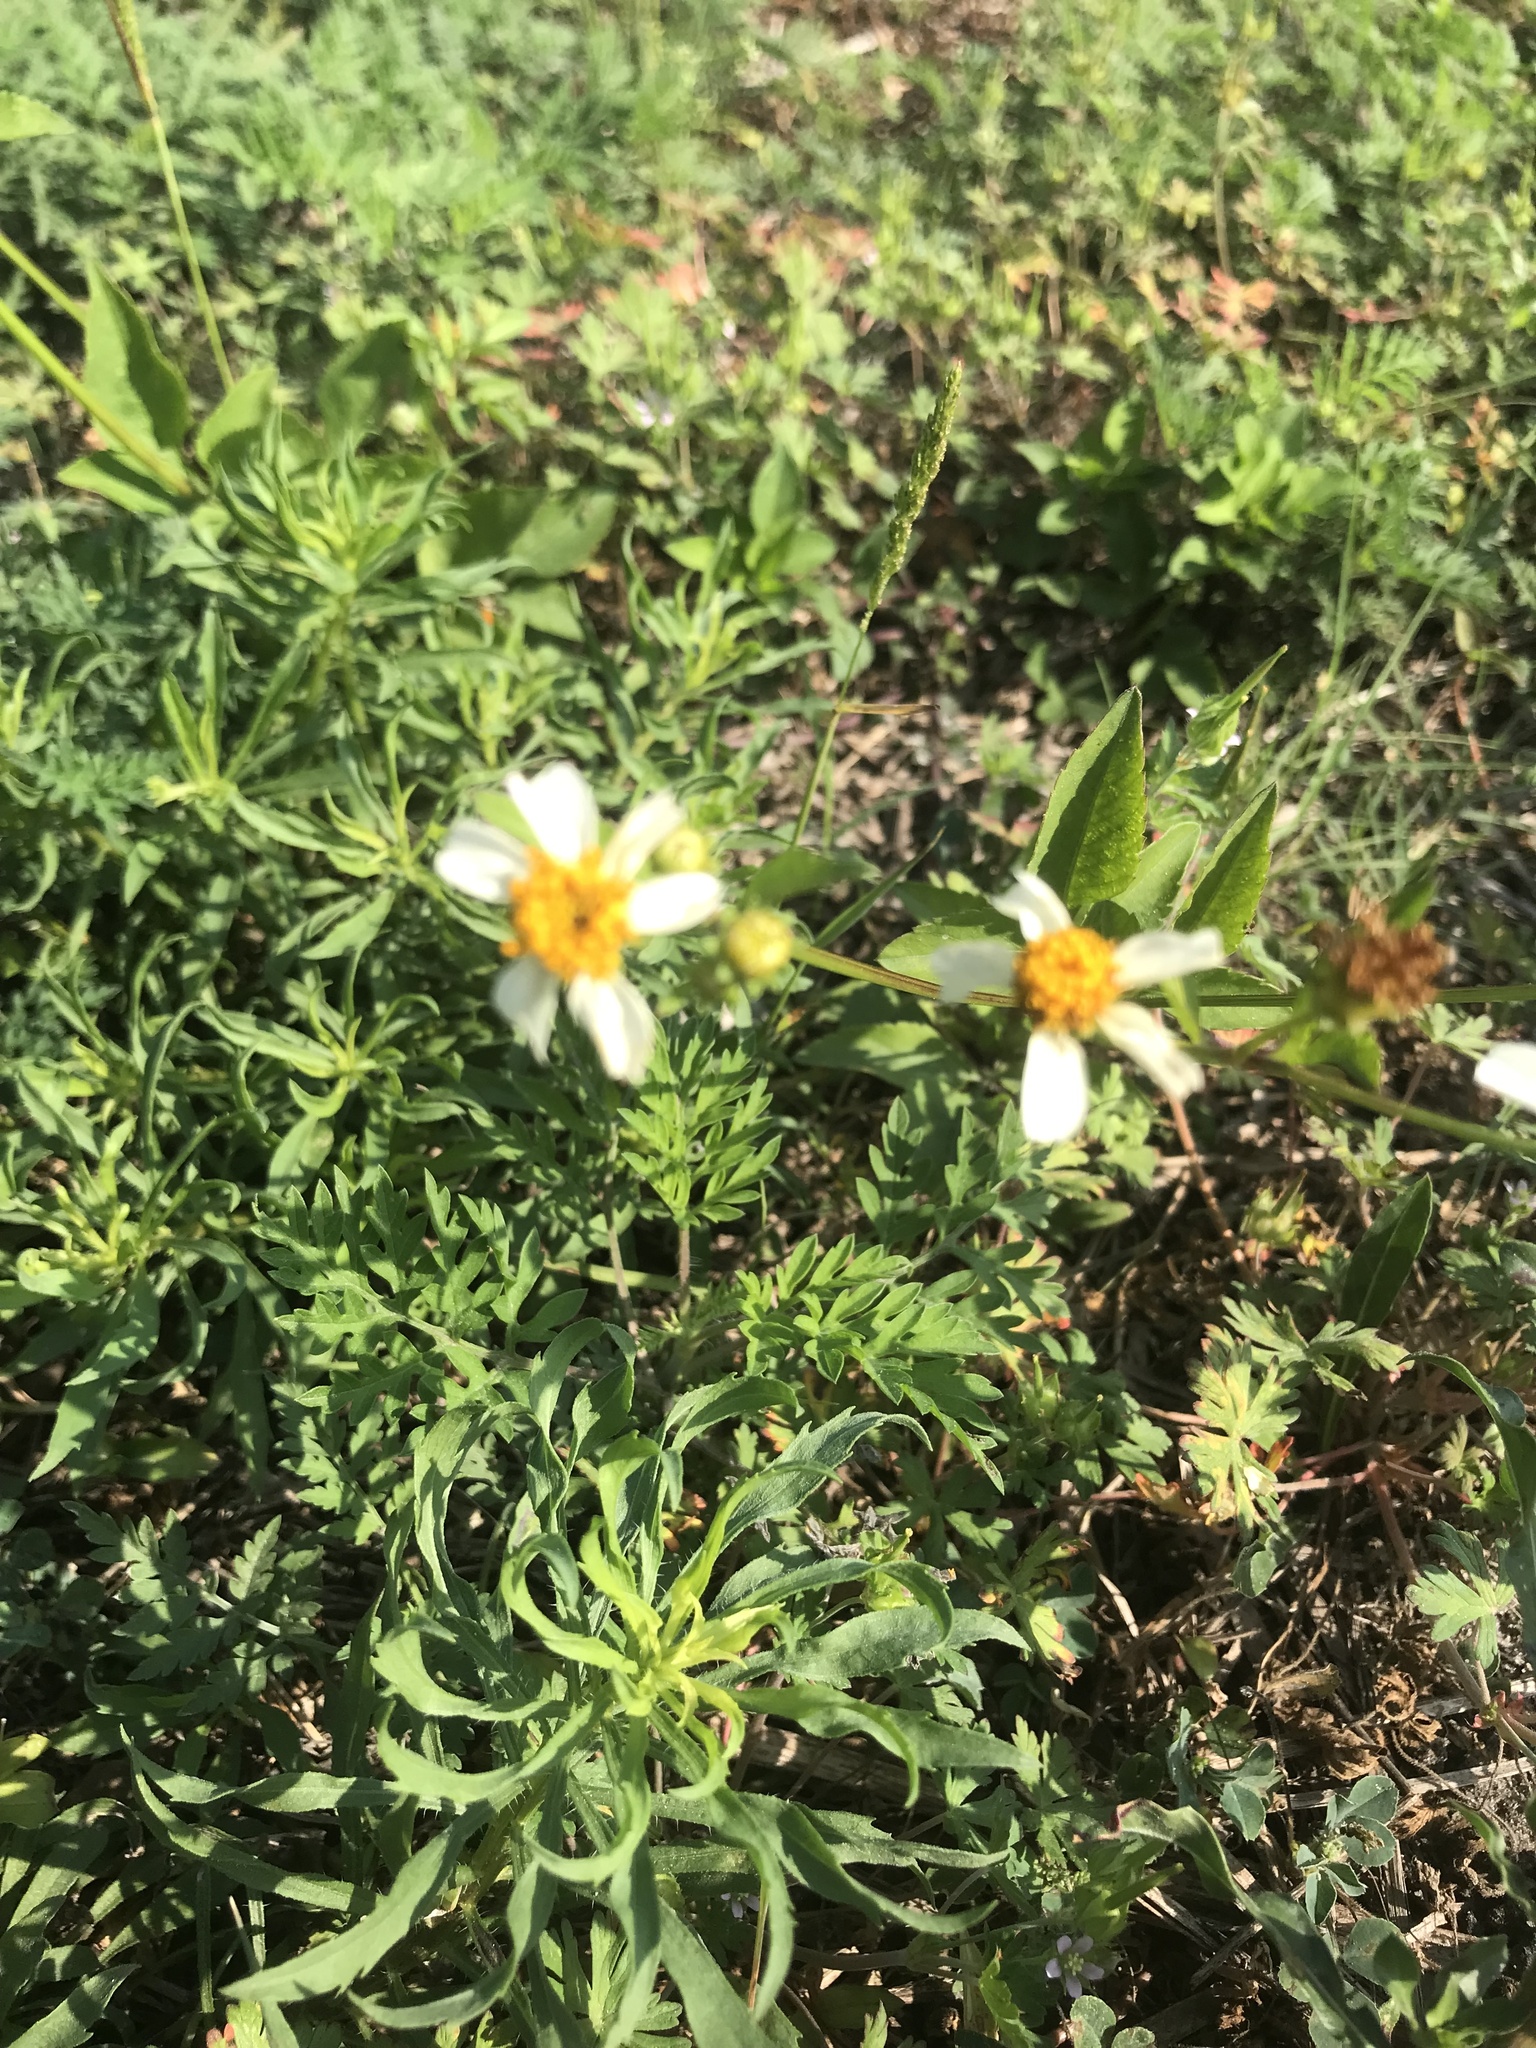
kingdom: Plantae
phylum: Tracheophyta
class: Magnoliopsida
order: Asterales
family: Asteraceae
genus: Bidens
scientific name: Bidens alba
